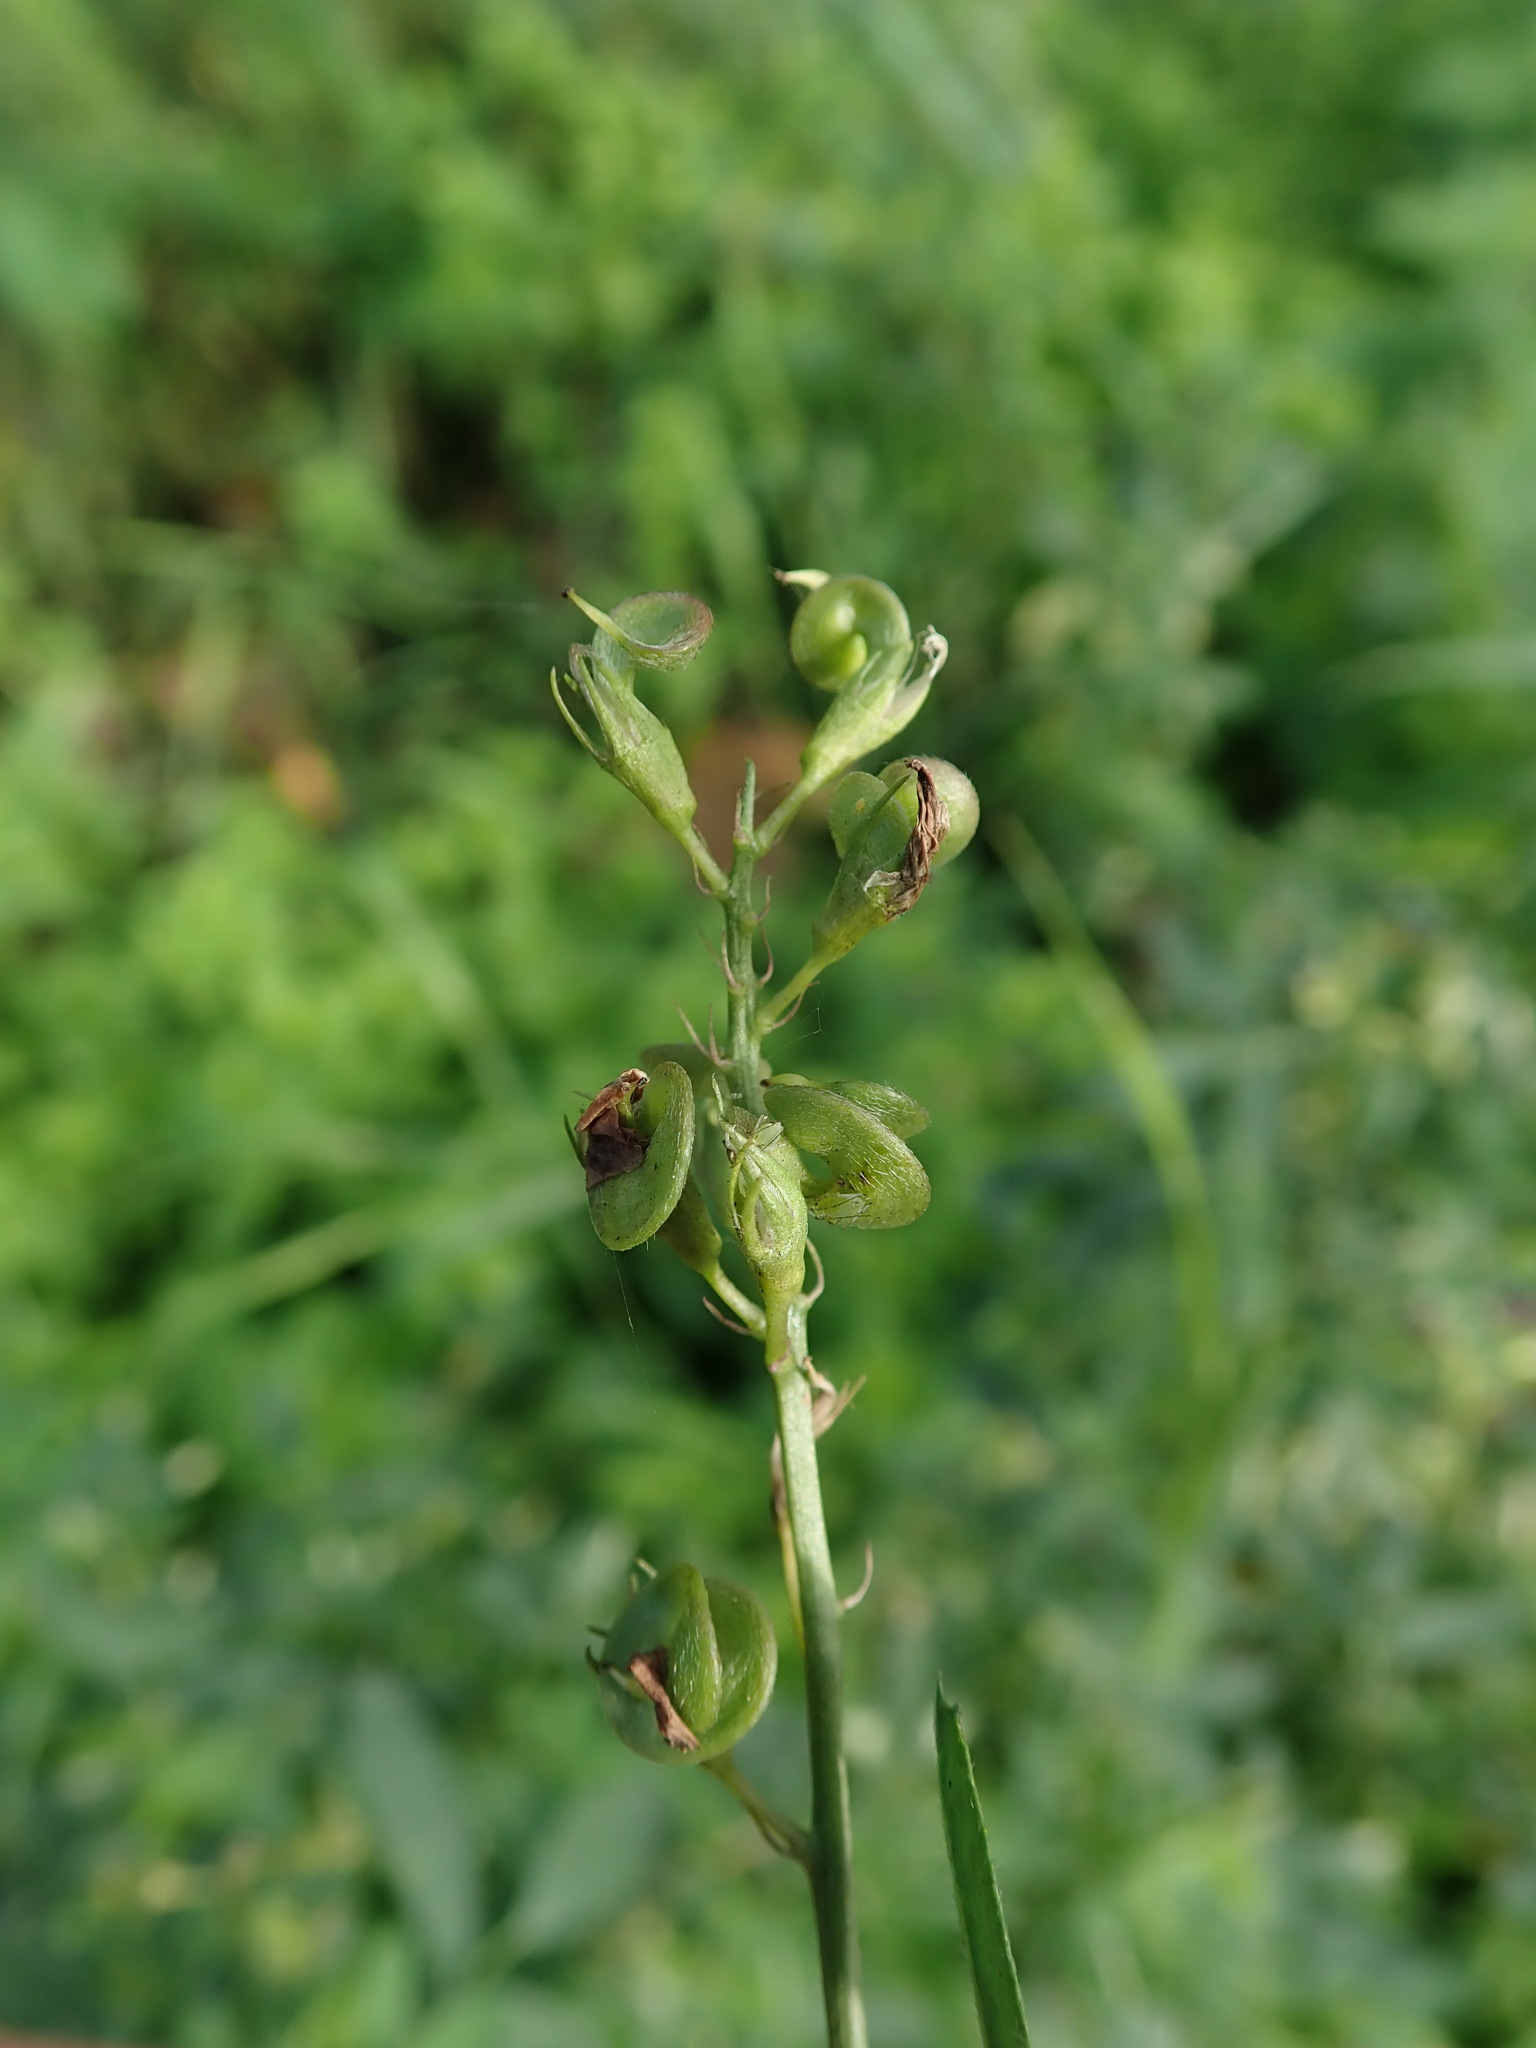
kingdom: Plantae
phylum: Tracheophyta
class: Magnoliopsida
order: Fabales
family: Fabaceae
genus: Medicago
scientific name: Medicago sativa
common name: Alfalfa
